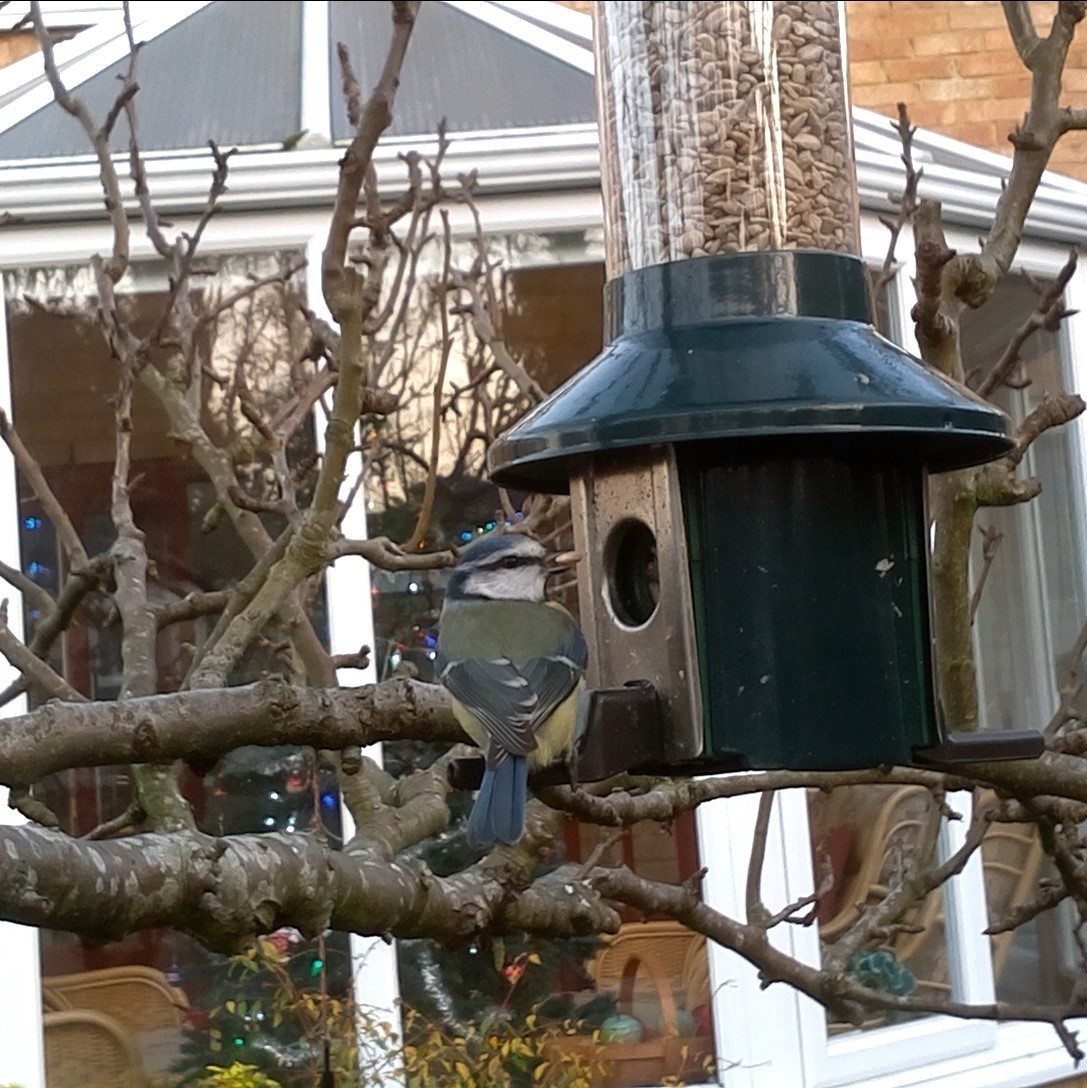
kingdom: Animalia
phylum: Chordata
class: Aves
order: Passeriformes
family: Paridae
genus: Cyanistes
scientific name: Cyanistes caeruleus
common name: Eurasian blue tit
